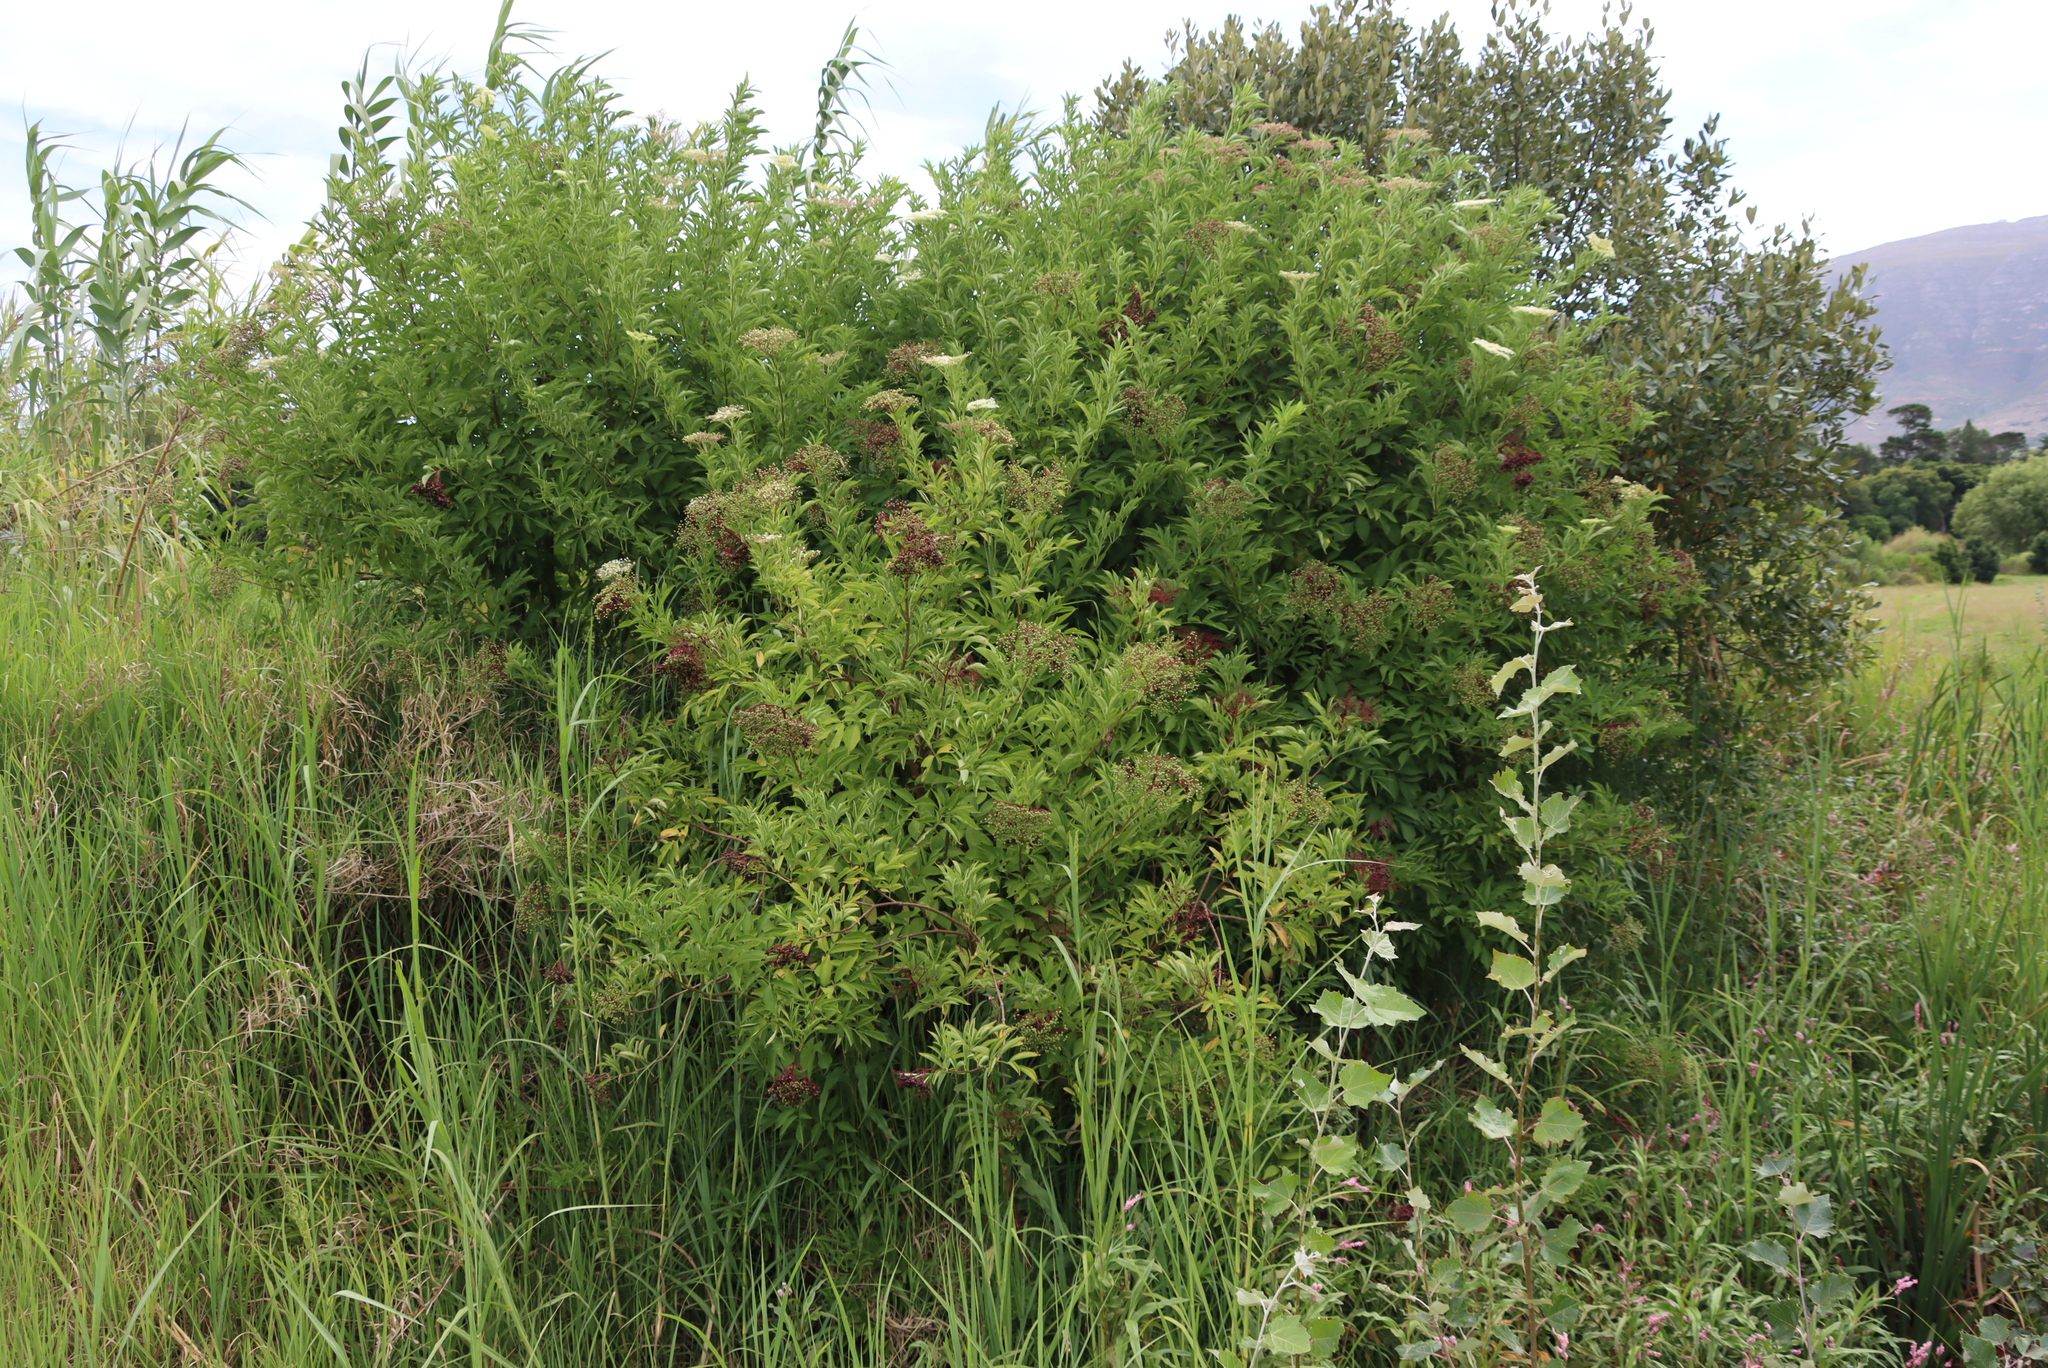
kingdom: Plantae
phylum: Tracheophyta
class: Magnoliopsida
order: Dipsacales
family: Viburnaceae
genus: Sambucus
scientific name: Sambucus nigra
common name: Elder
